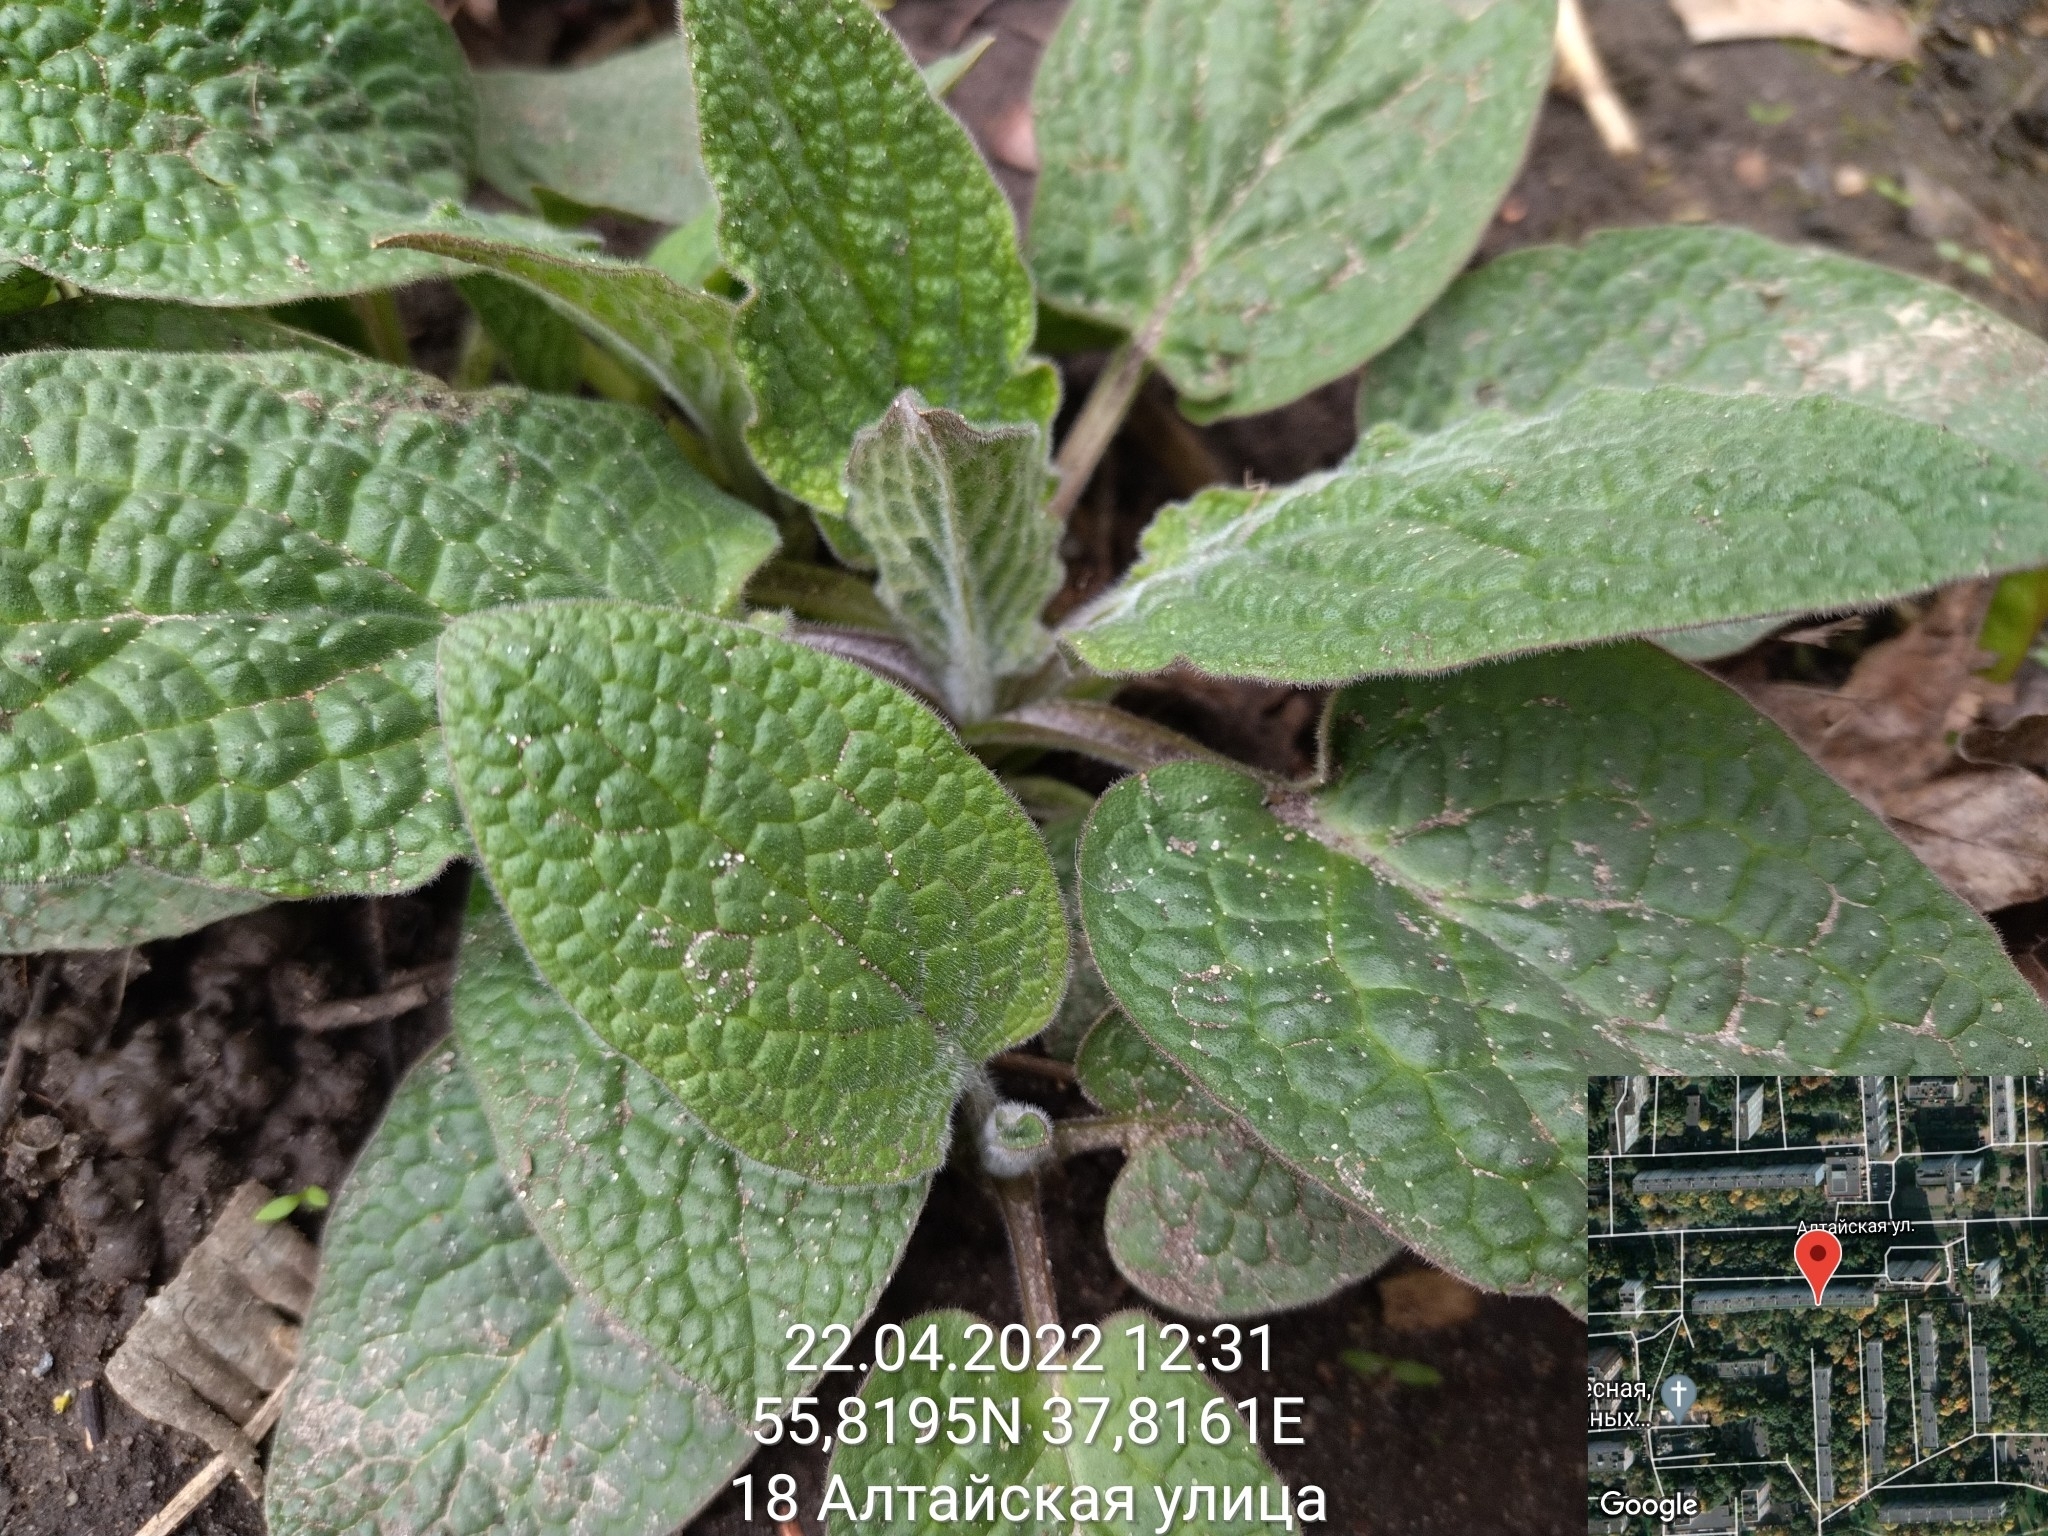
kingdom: Plantae
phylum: Tracheophyta
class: Magnoliopsida
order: Boraginales
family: Boraginaceae
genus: Symphytum
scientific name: Symphytum
